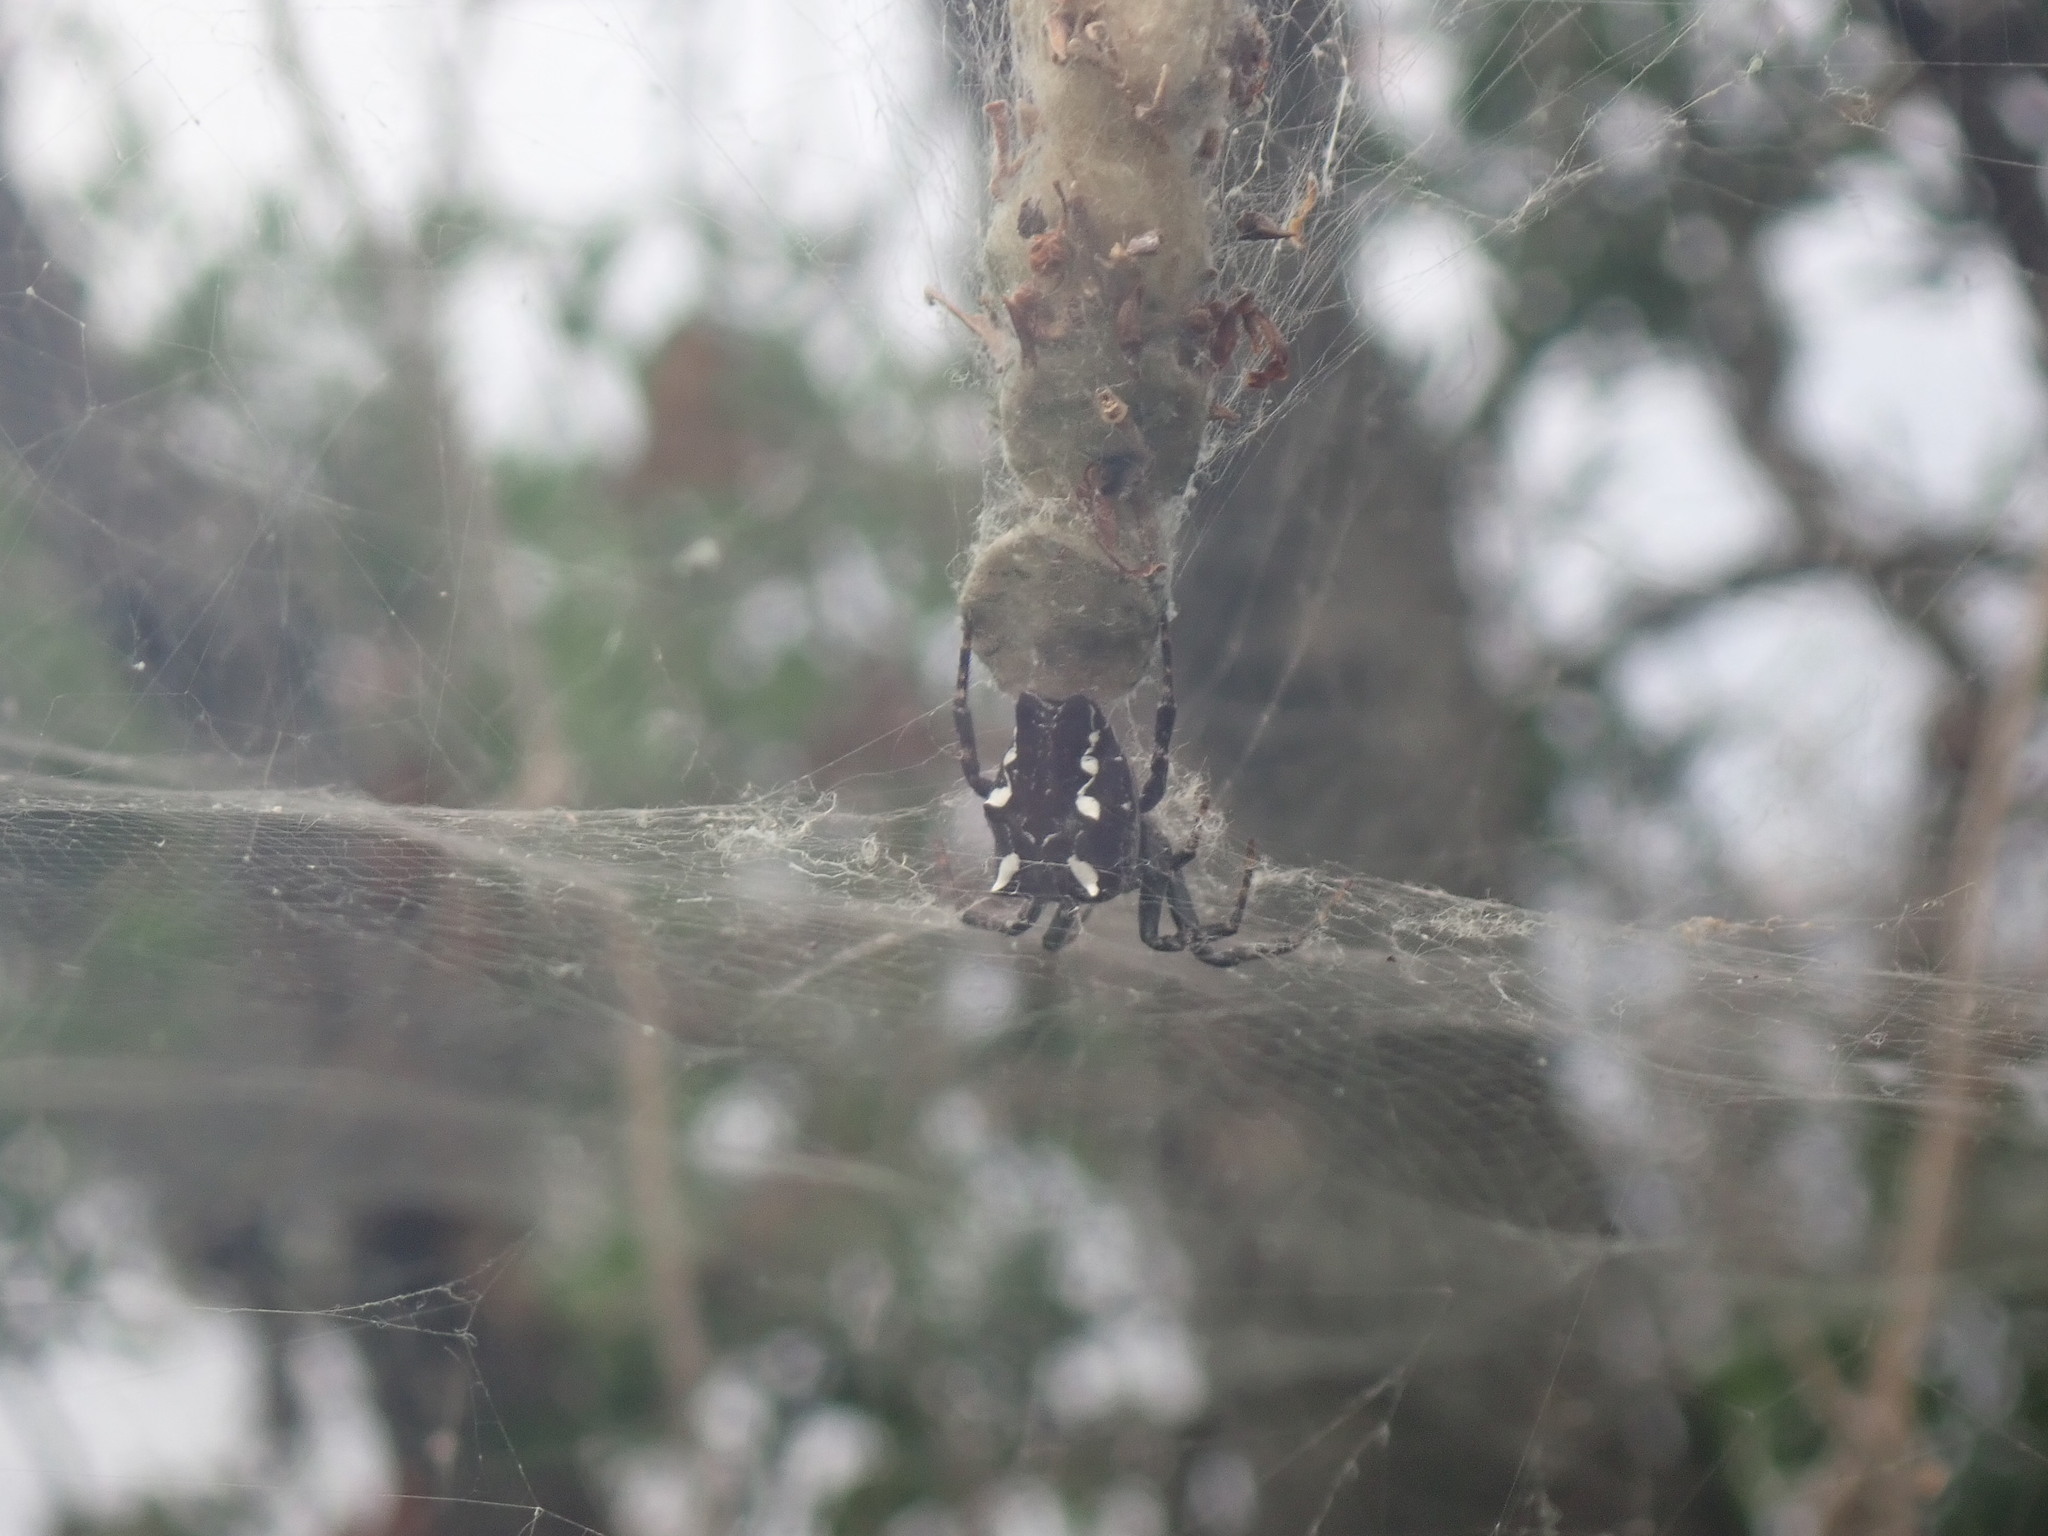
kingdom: Animalia
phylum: Arthropoda
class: Arachnida
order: Araneae
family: Araneidae
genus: Cyrtophora
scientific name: Cyrtophora citricola
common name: Orb weavers
